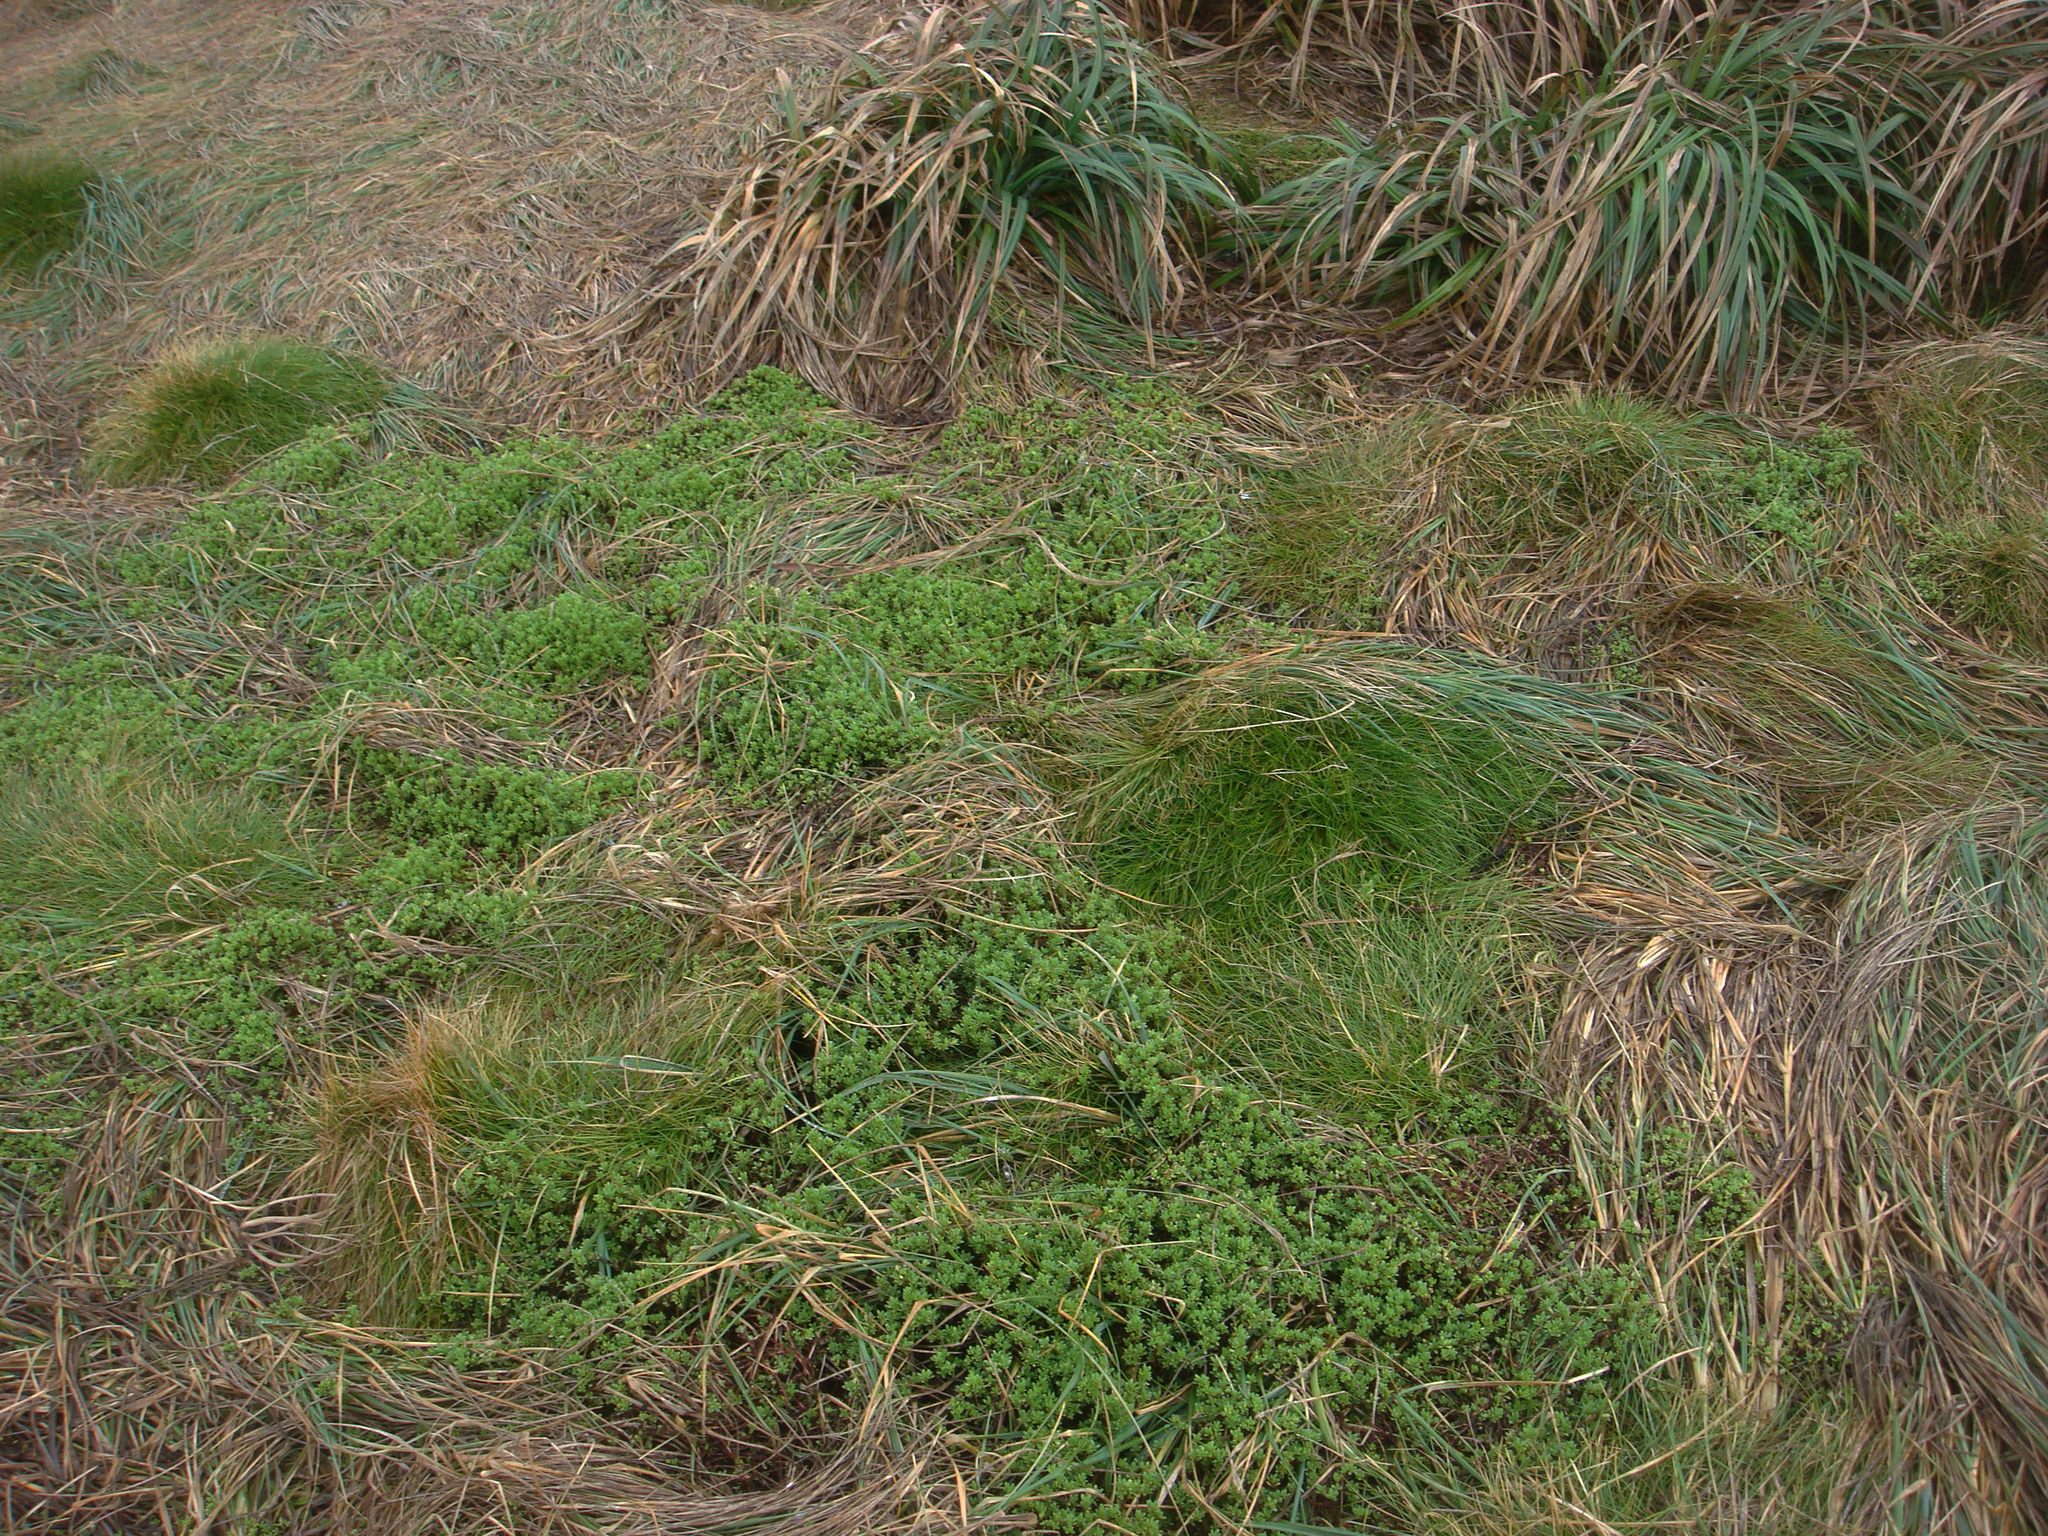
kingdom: Plantae
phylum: Tracheophyta
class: Magnoliopsida
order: Saxifragales
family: Crassulaceae
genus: Crassula
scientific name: Crassula moschata
